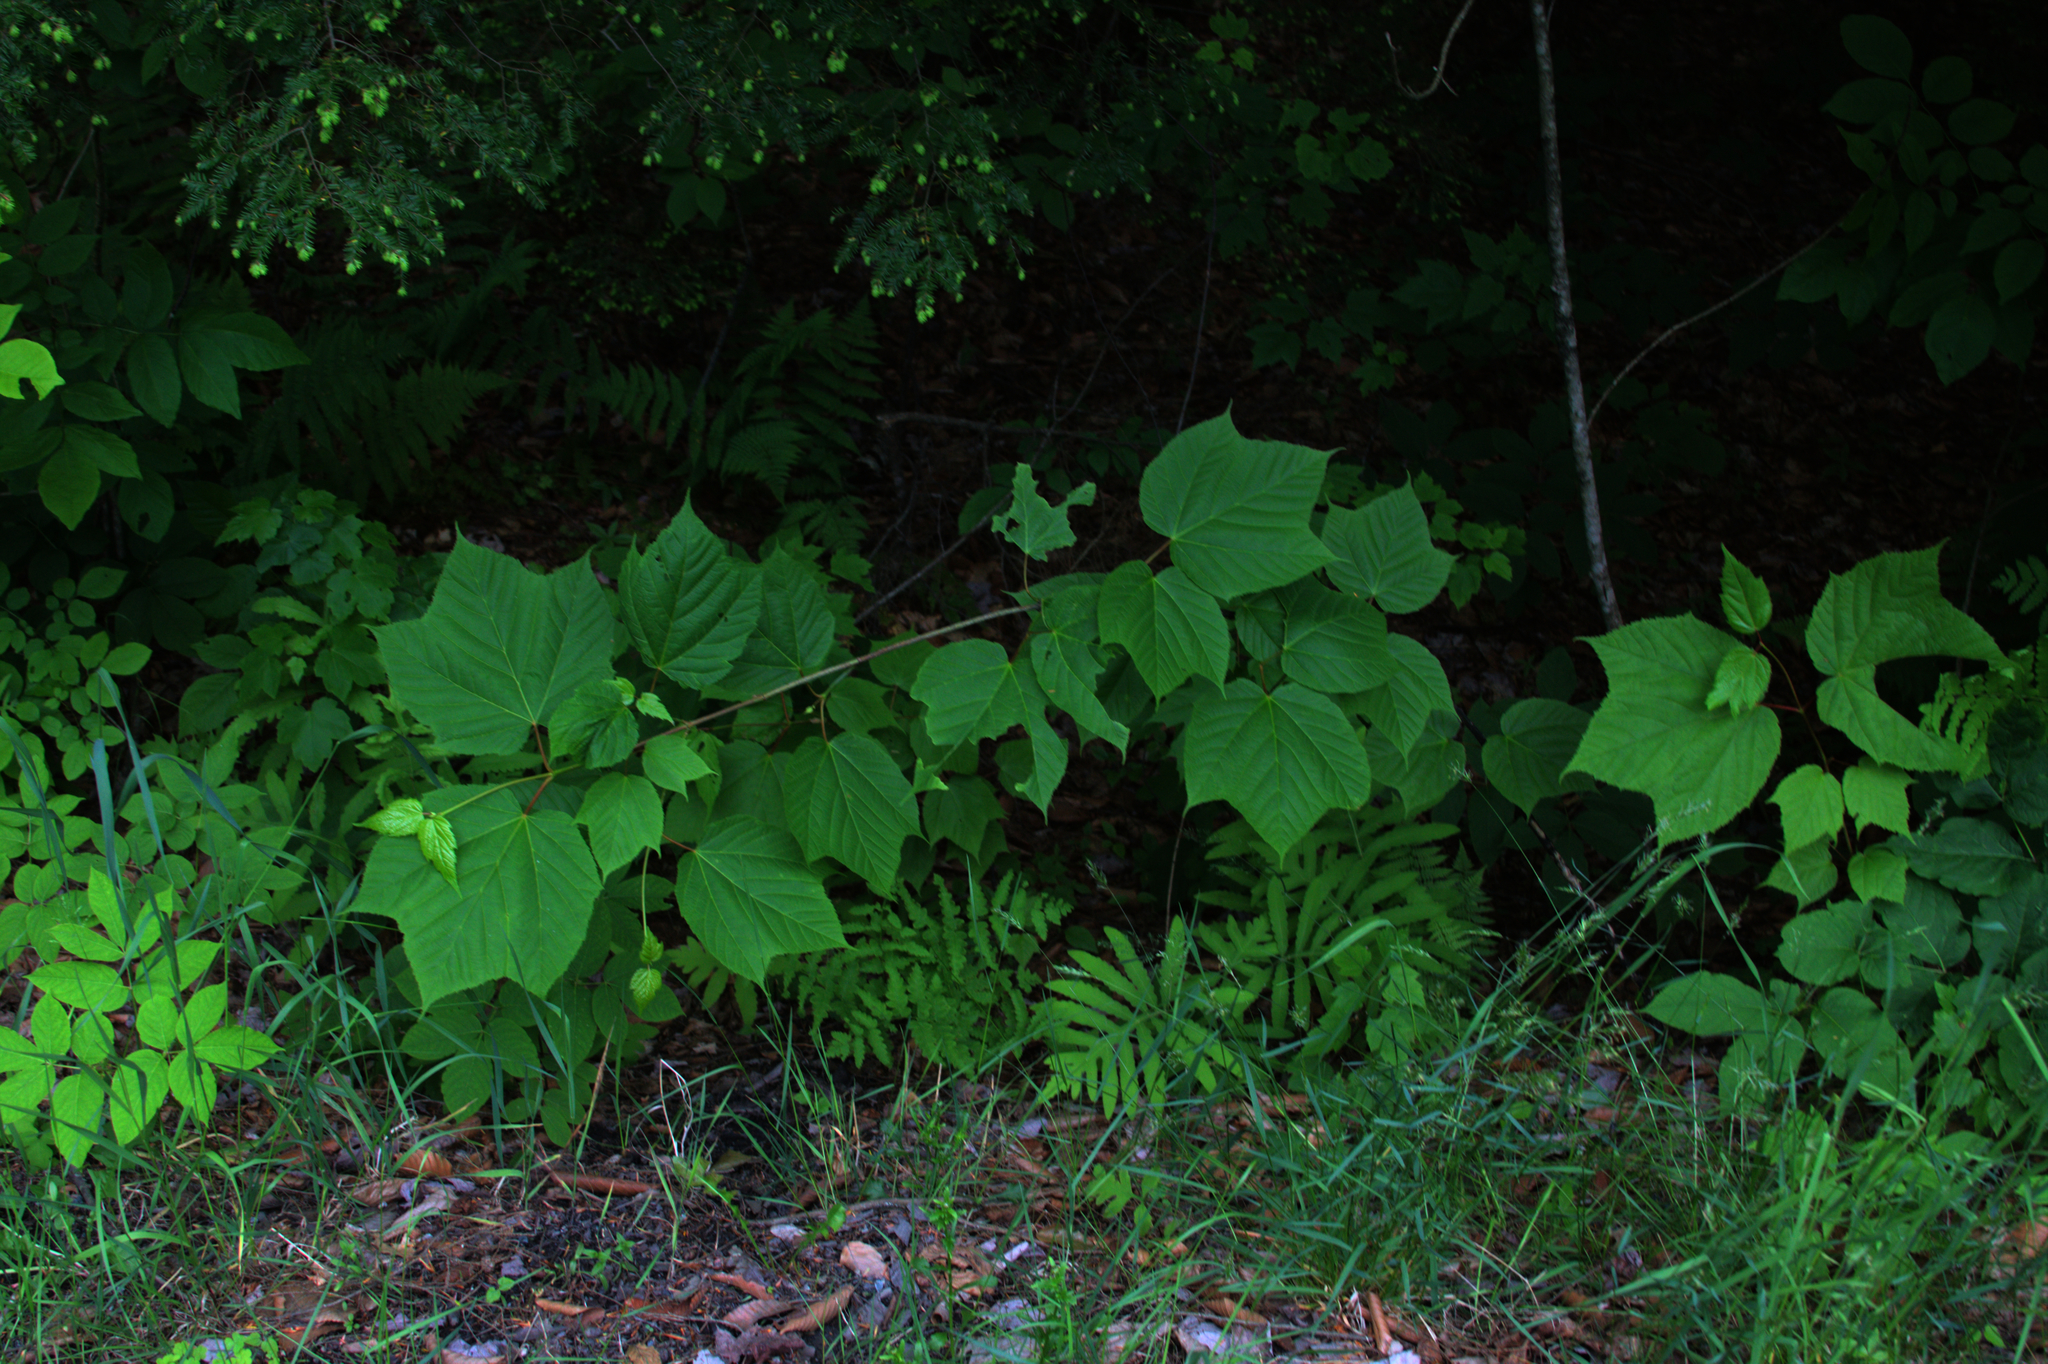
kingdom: Plantae
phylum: Tracheophyta
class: Magnoliopsida
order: Sapindales
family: Sapindaceae
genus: Acer
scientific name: Acer pensylvanicum
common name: Moosewood
